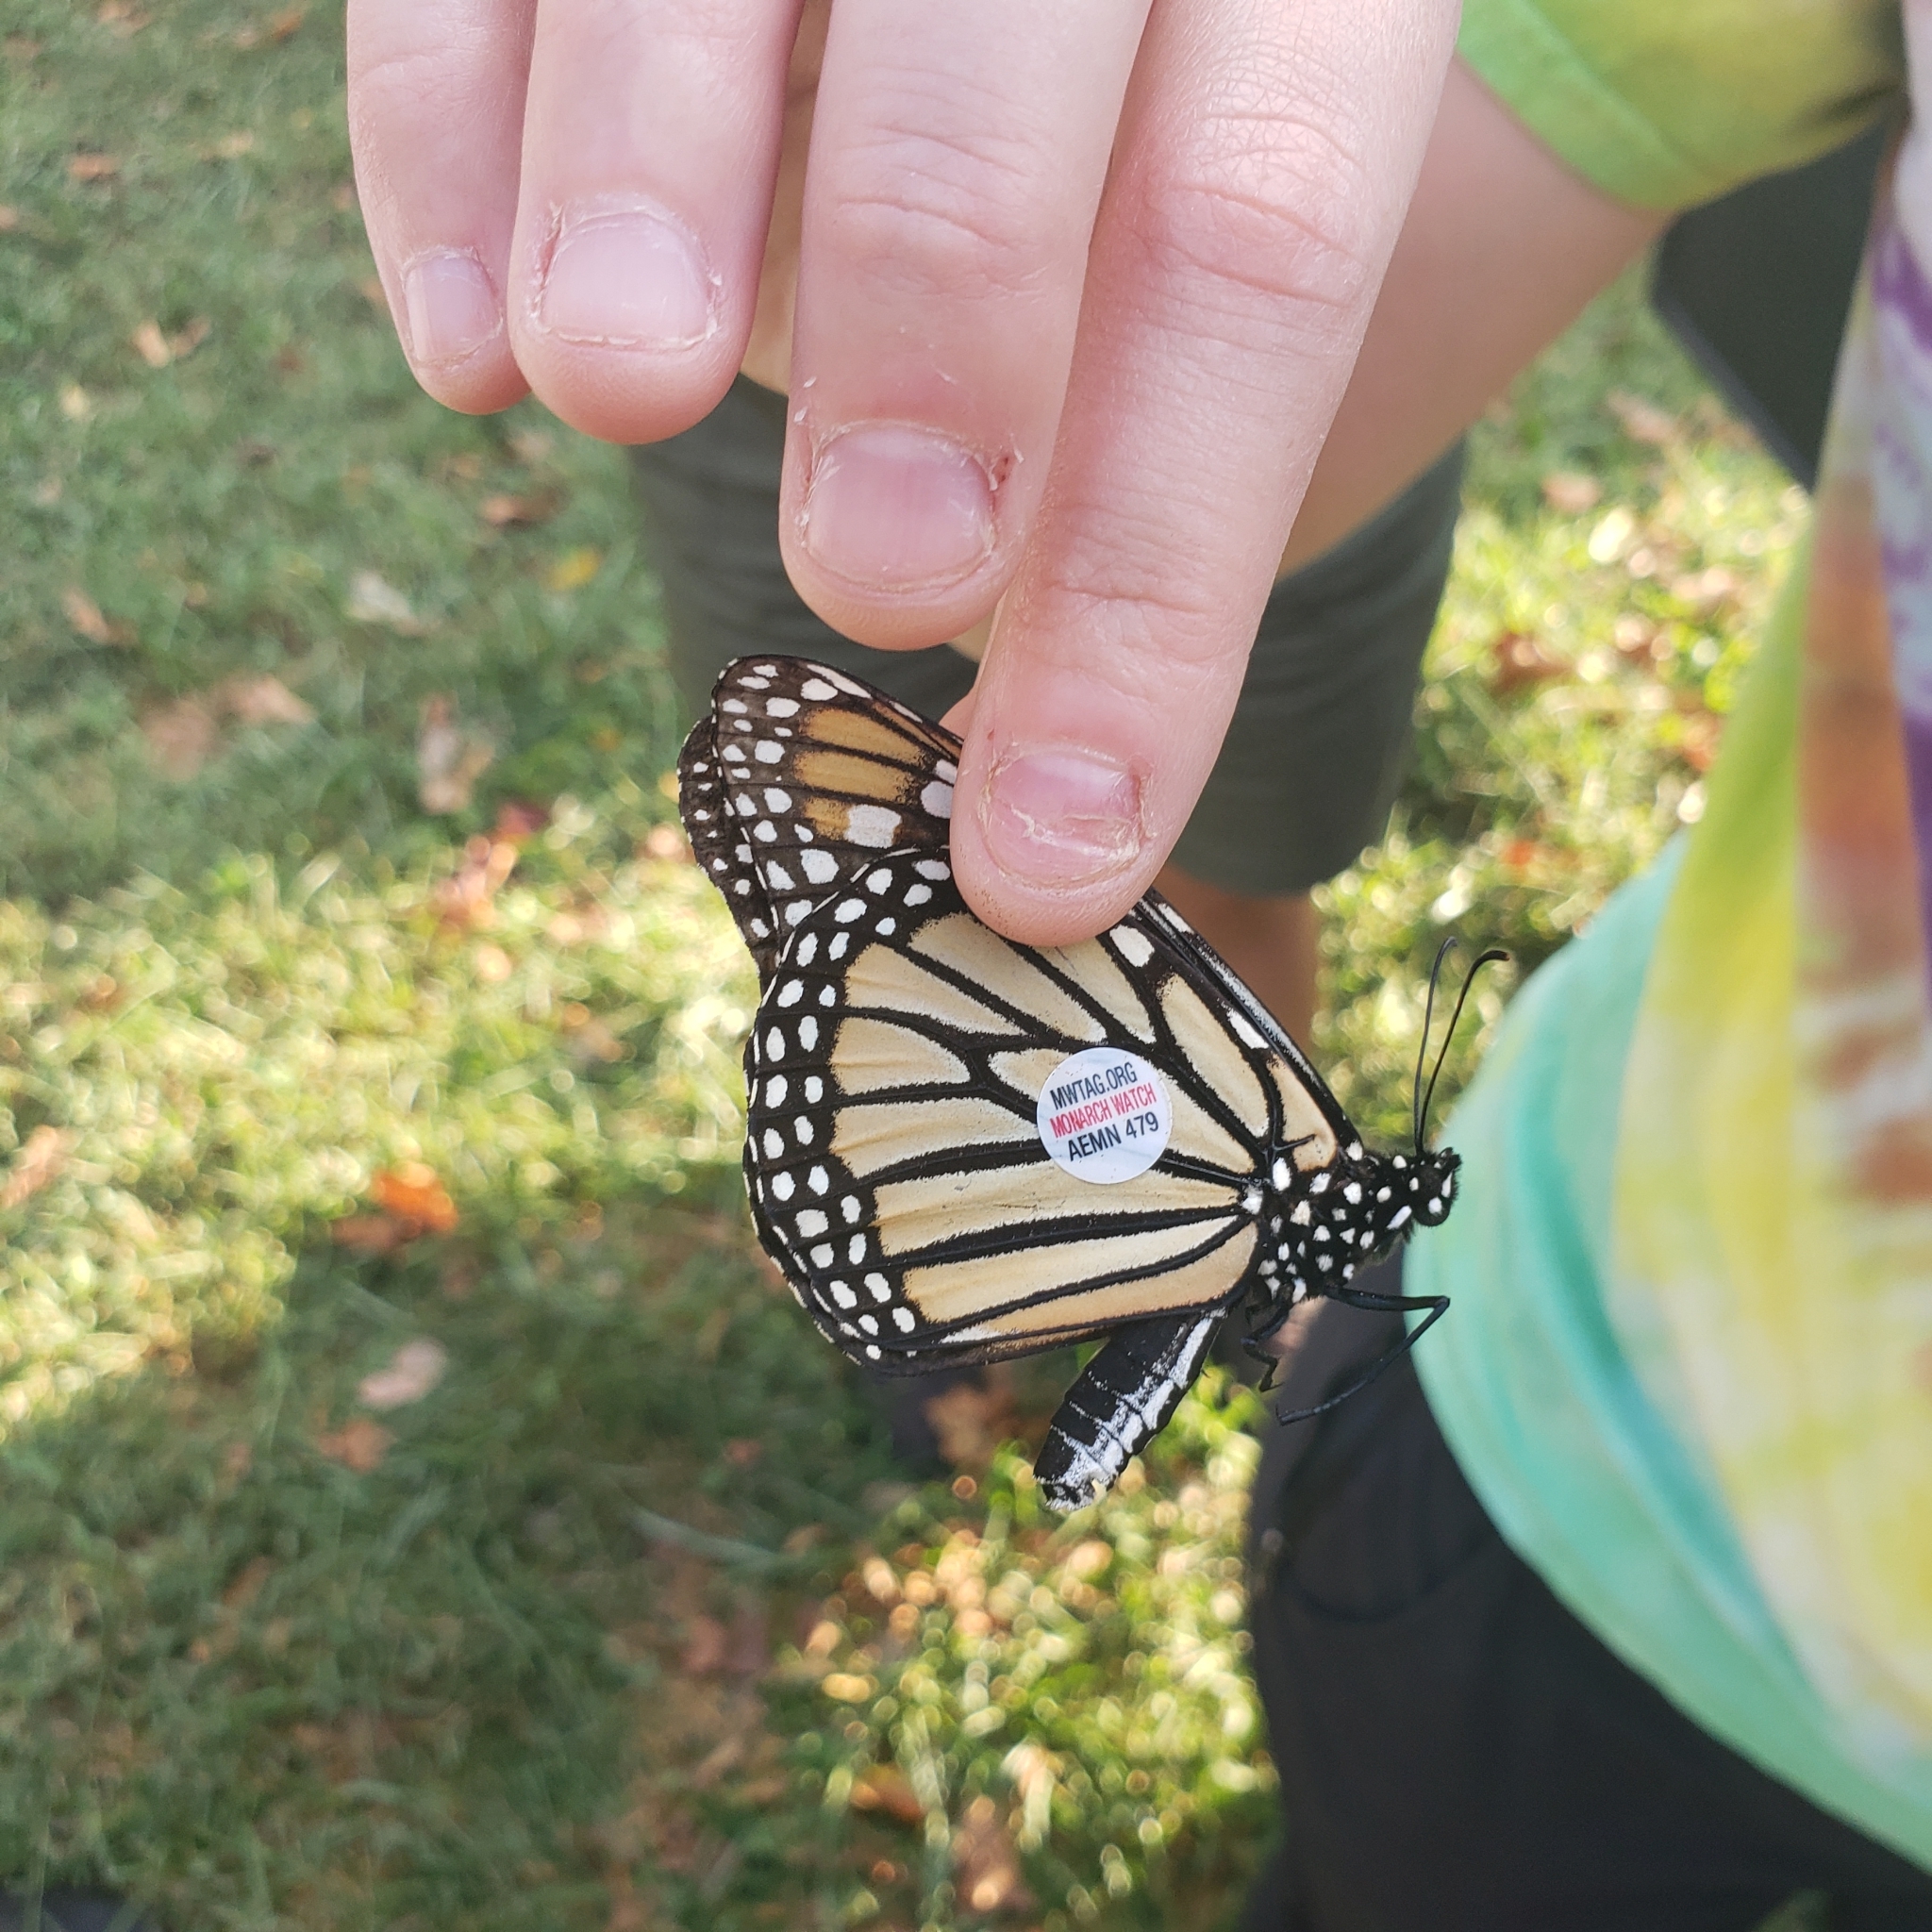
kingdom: Animalia
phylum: Arthropoda
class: Insecta
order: Lepidoptera
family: Nymphalidae
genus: Danaus
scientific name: Danaus plexippus
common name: Monarch
